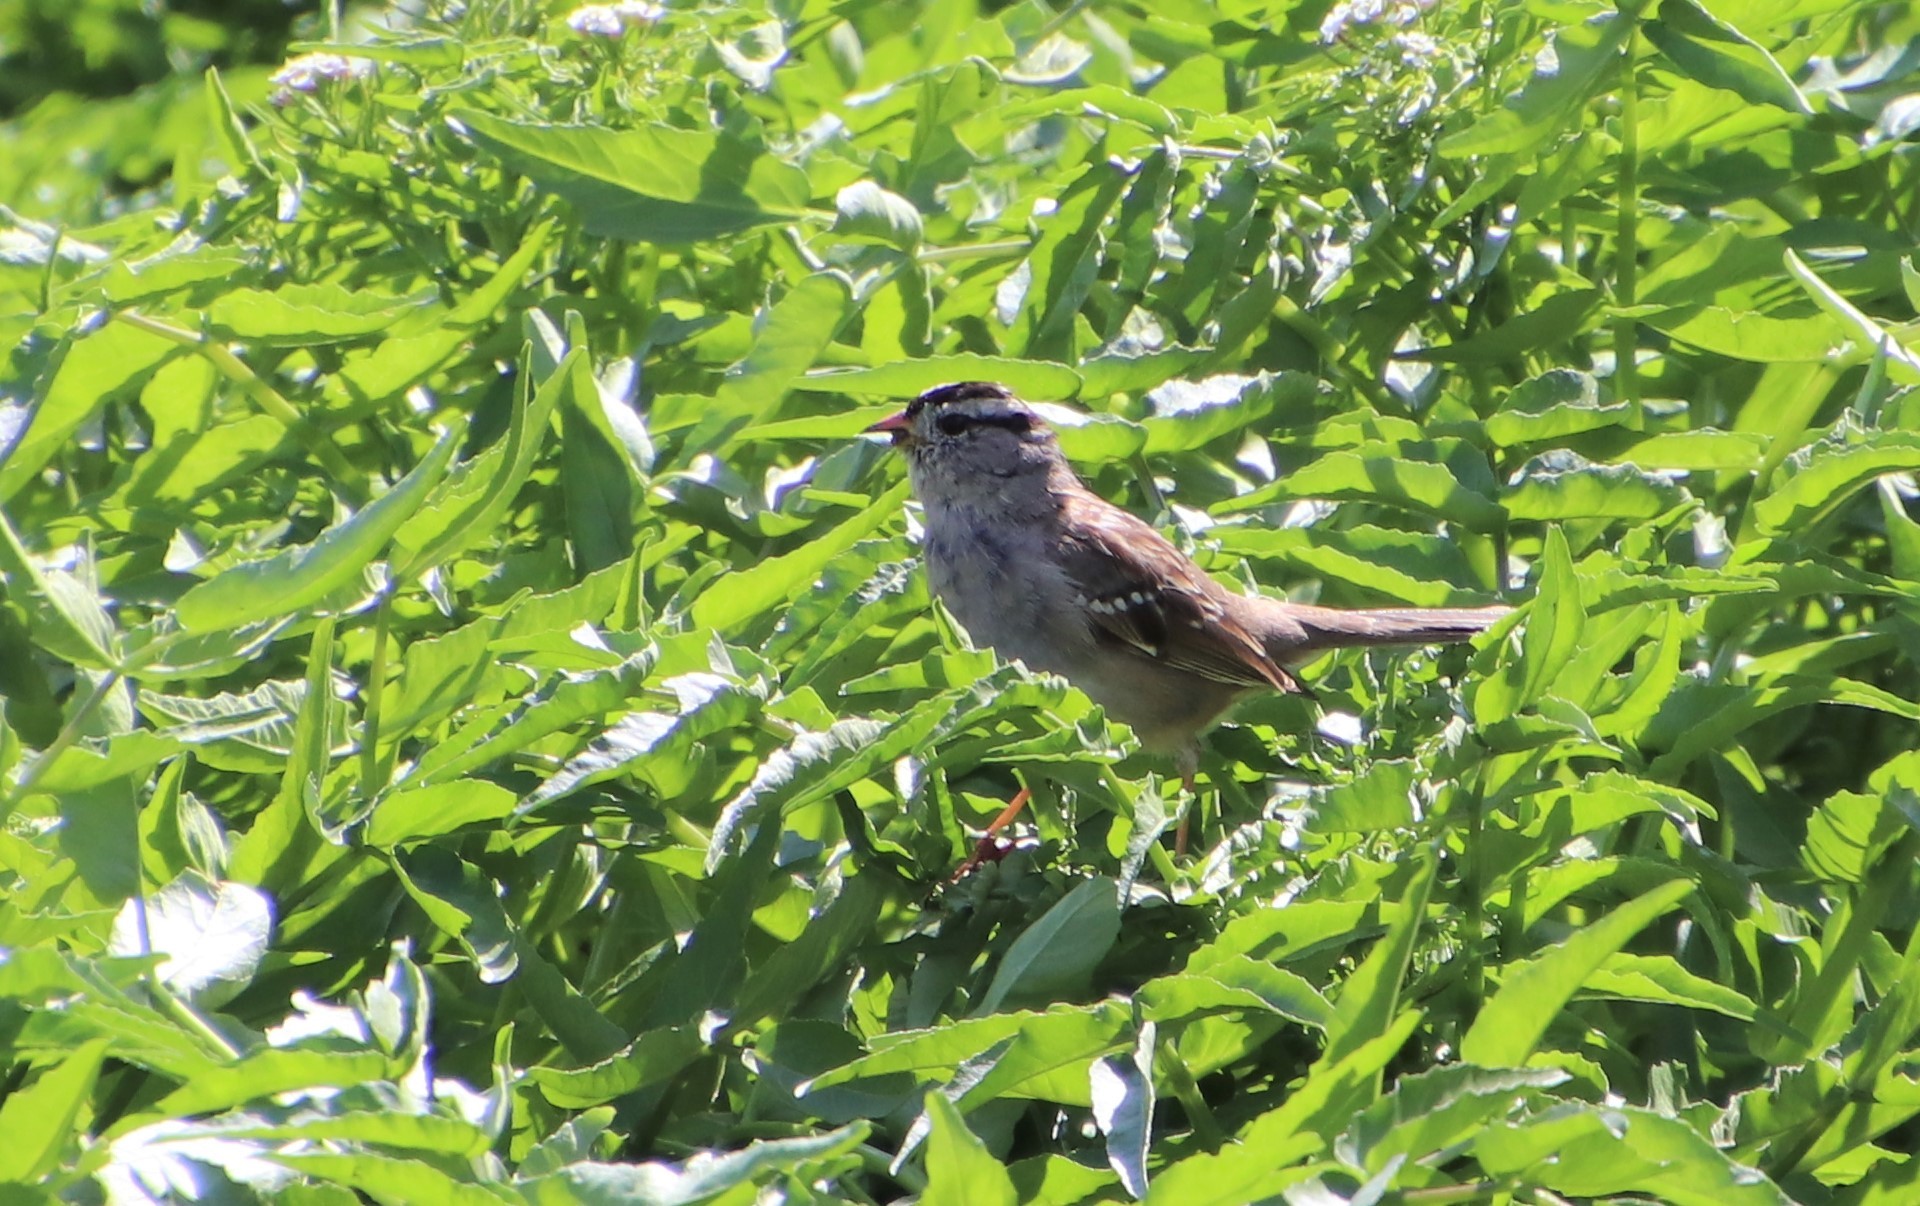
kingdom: Animalia
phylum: Chordata
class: Aves
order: Passeriformes
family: Passerellidae
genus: Zonotrichia
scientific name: Zonotrichia leucophrys
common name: White-crowned sparrow
